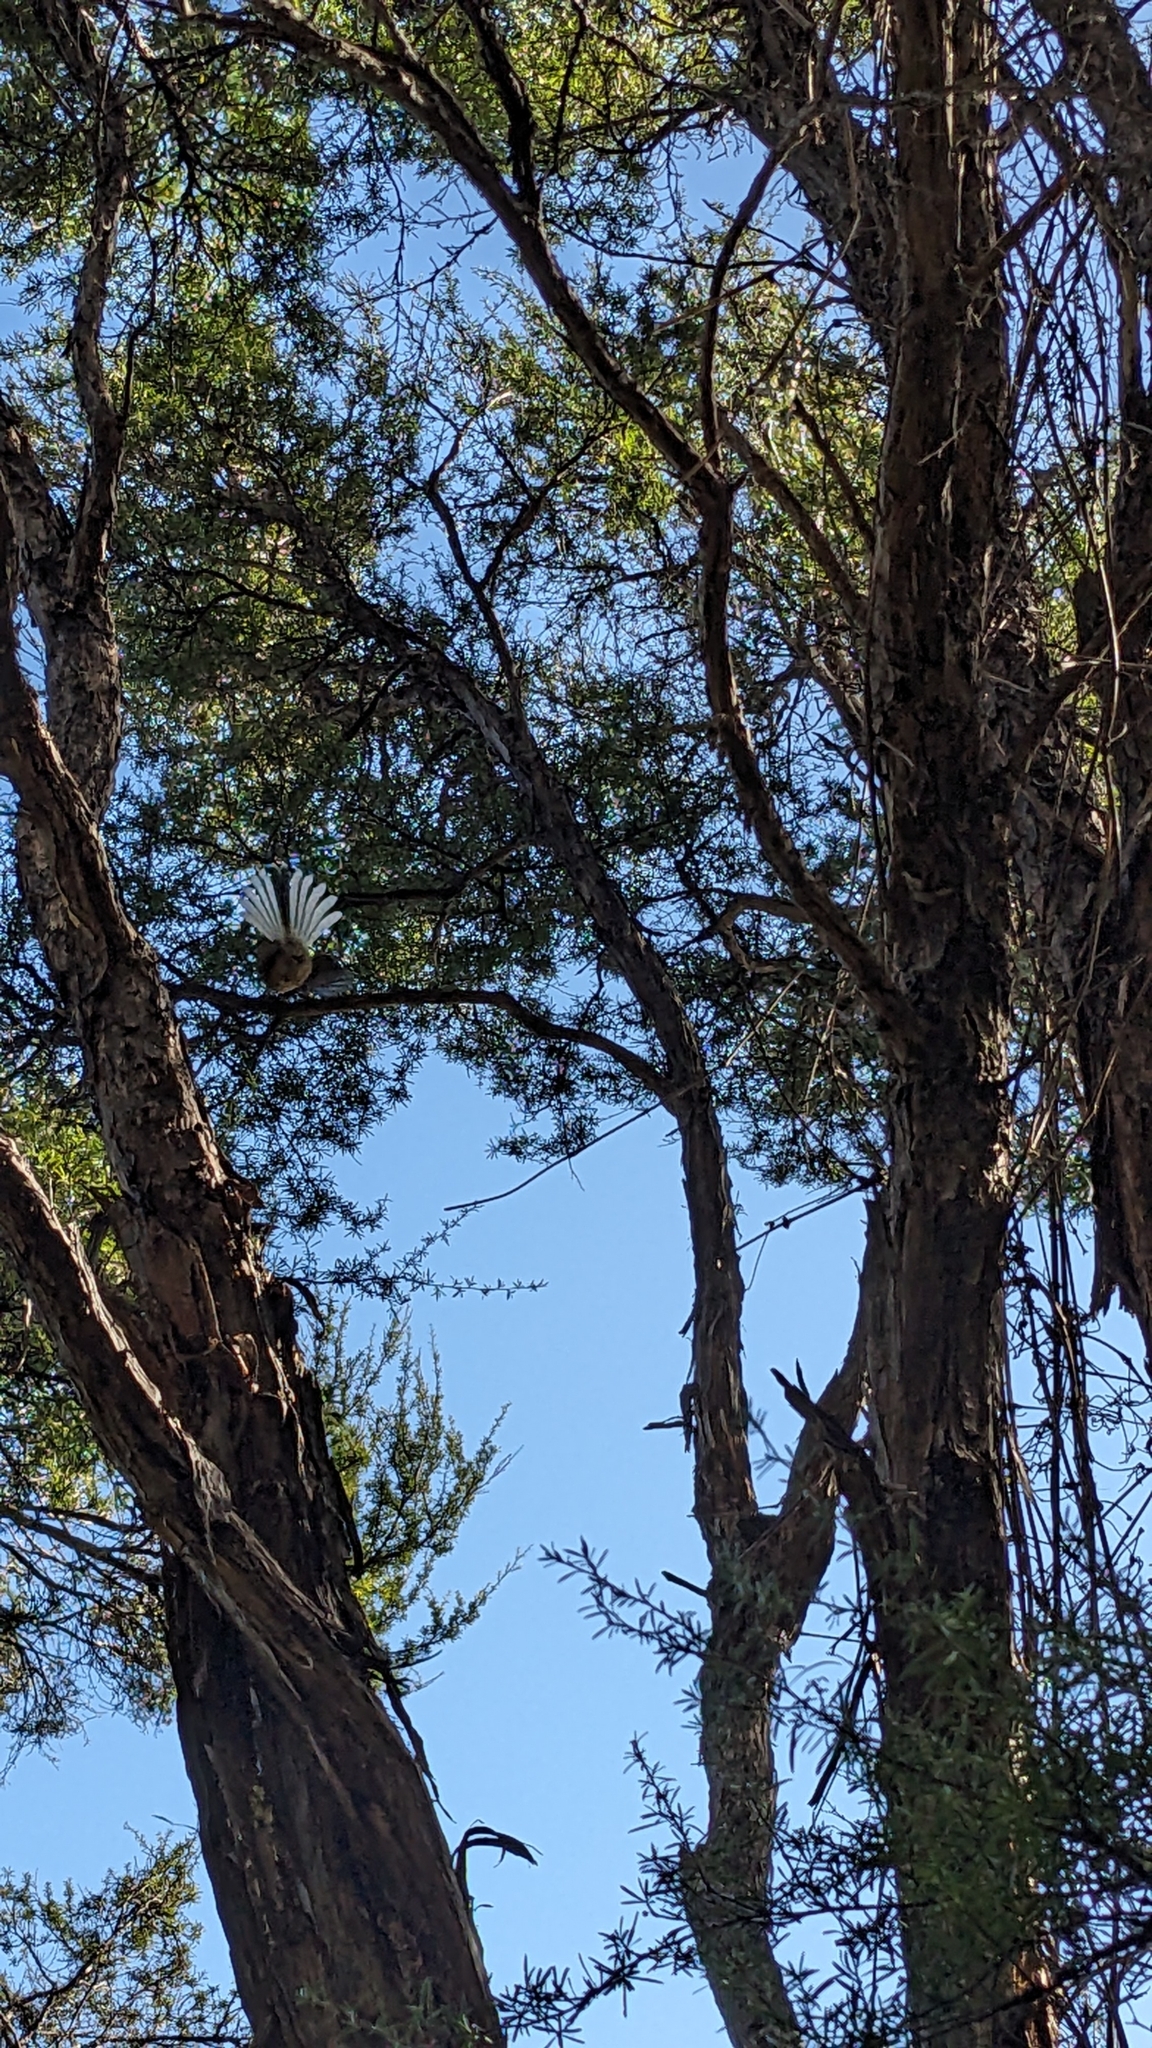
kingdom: Animalia
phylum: Chordata
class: Aves
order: Passeriformes
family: Rhipiduridae
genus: Rhipidura
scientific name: Rhipidura fuliginosa
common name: New zealand fantail
